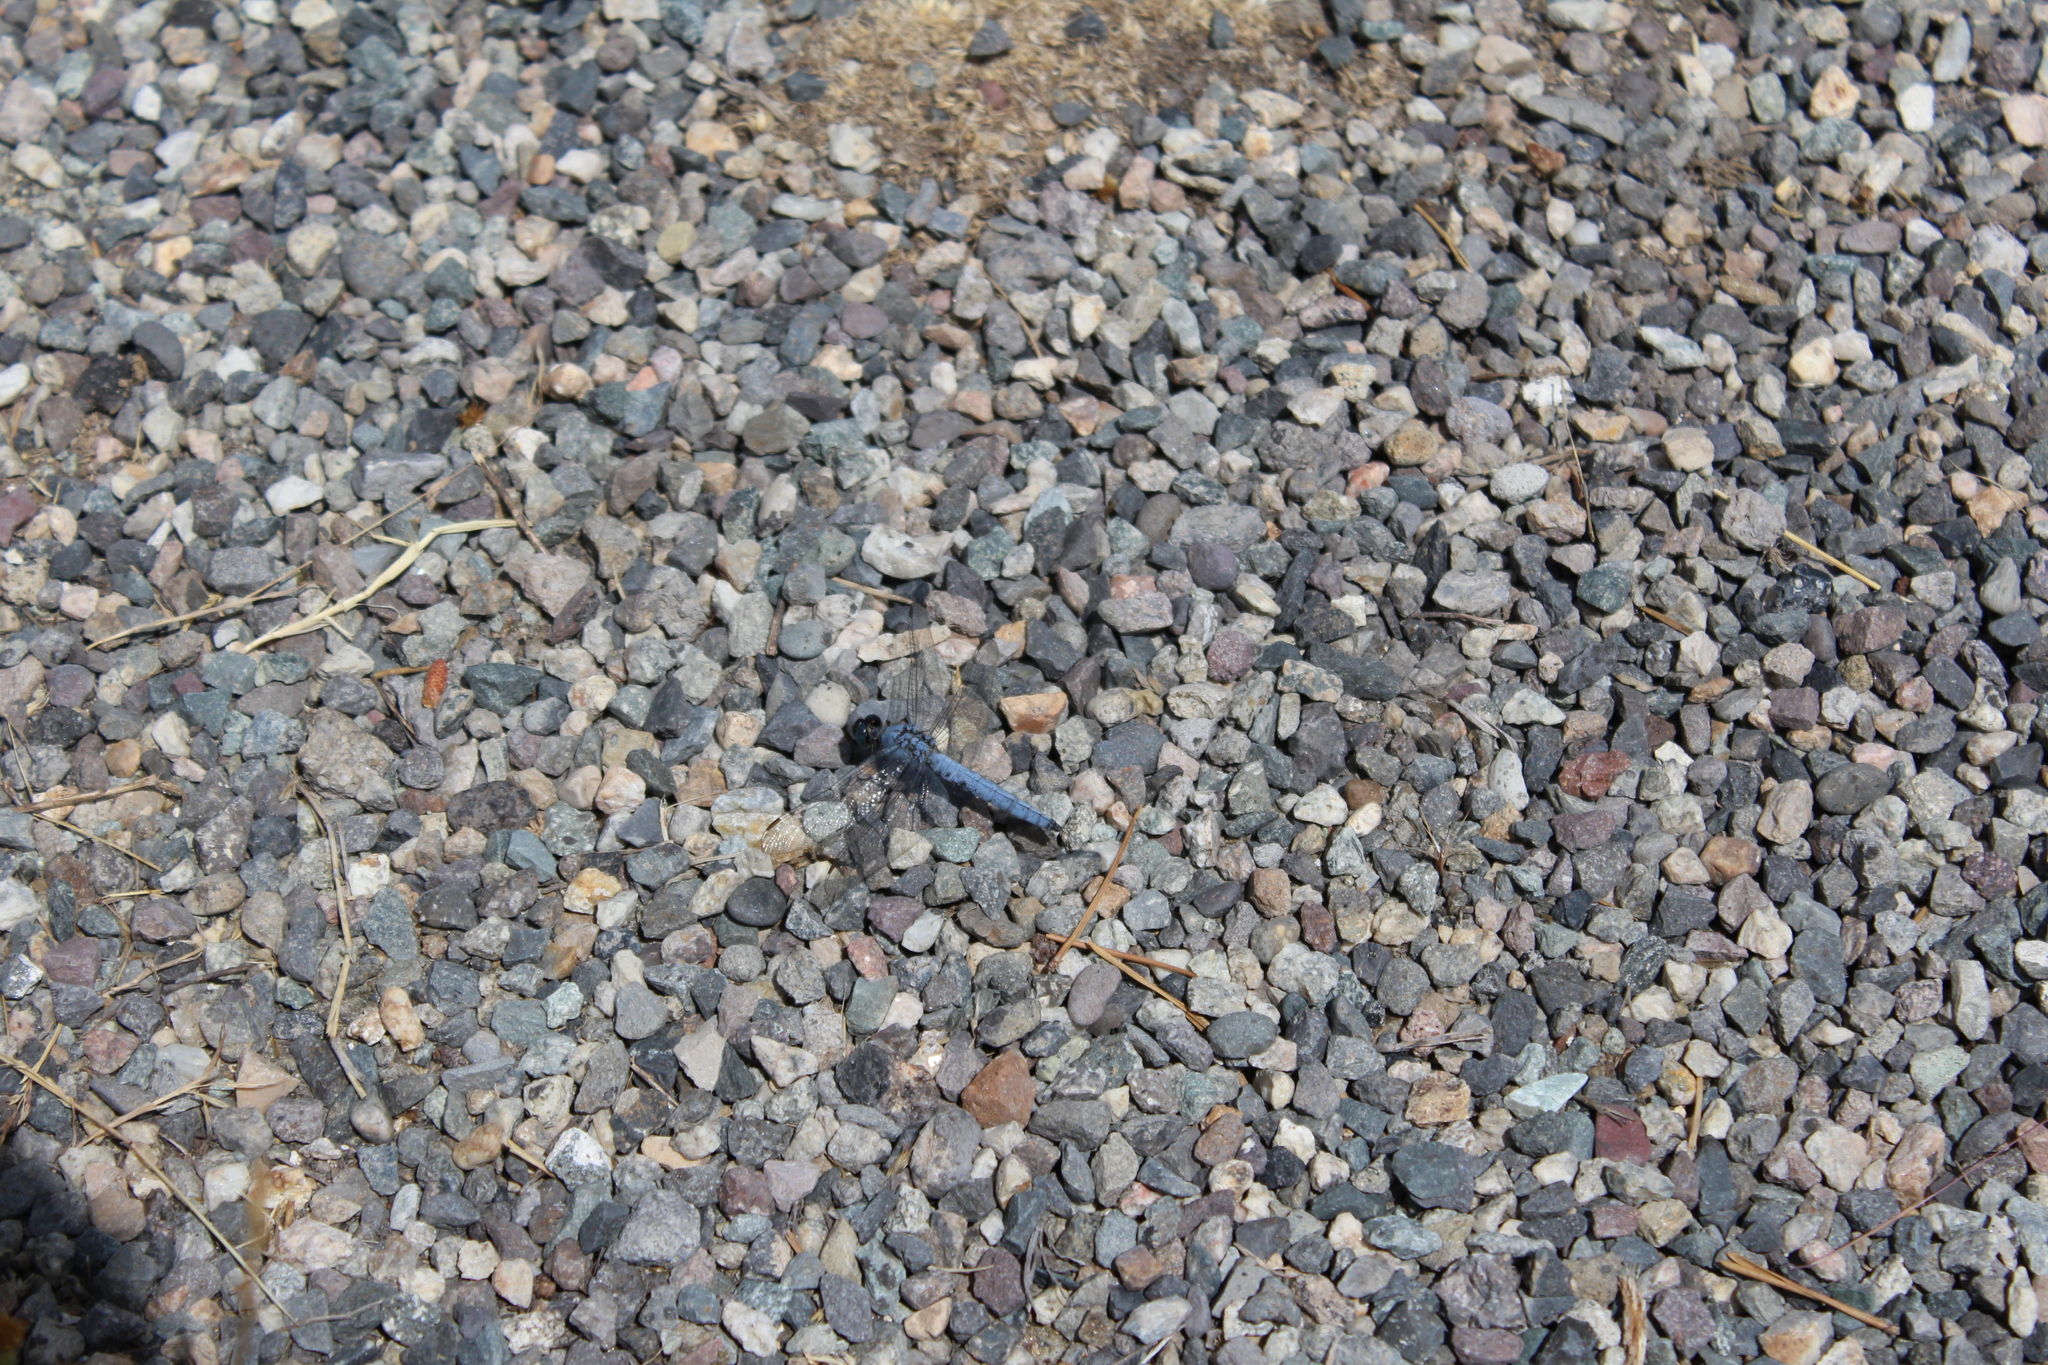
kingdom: Animalia
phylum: Arthropoda
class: Insecta
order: Odonata
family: Libellulidae
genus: Erythemis
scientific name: Erythemis collocata
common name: Western pondhawk
